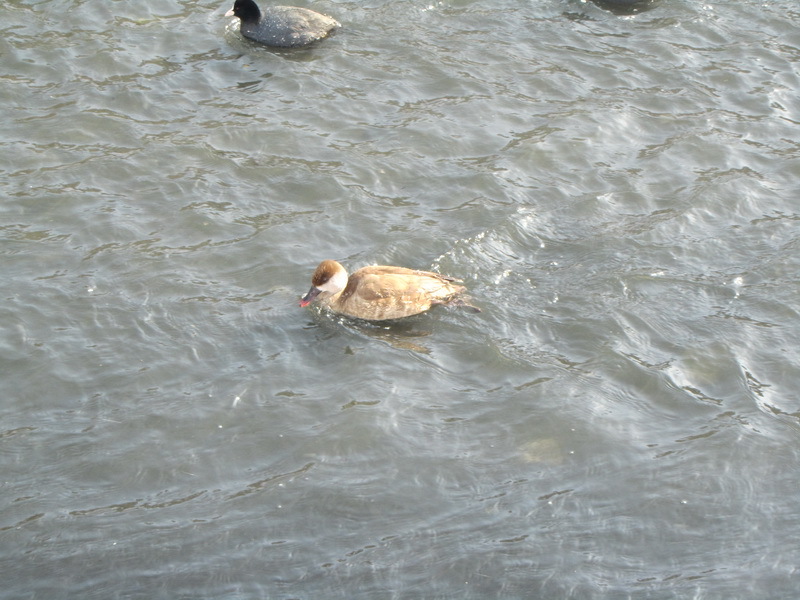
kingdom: Animalia
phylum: Chordata
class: Aves
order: Anseriformes
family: Anatidae
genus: Netta
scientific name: Netta rufina
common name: Red-crested pochard
